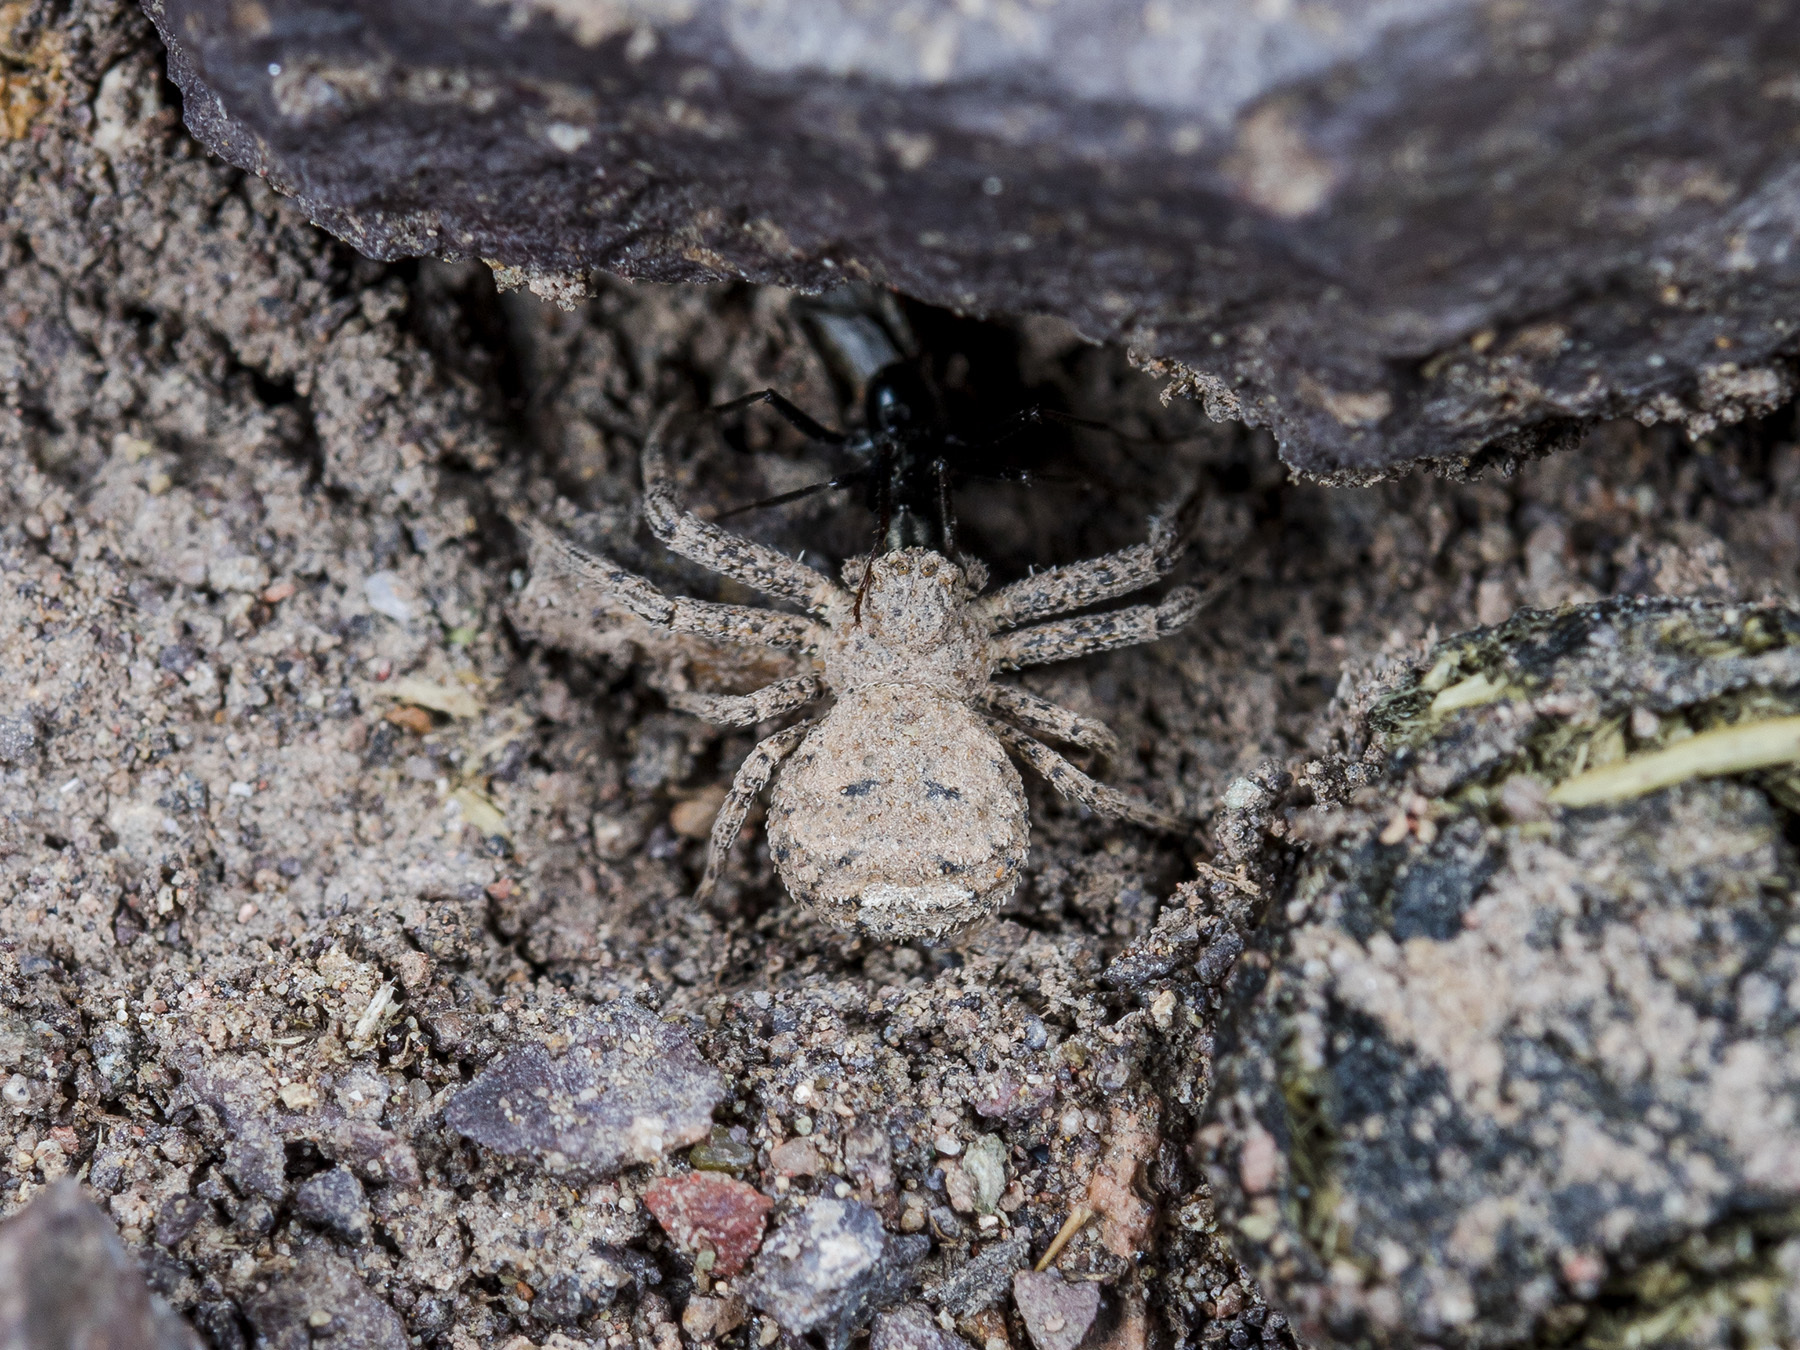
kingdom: Animalia
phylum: Arthropoda
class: Arachnida
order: Araneae
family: Thomisidae
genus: Ozyptila
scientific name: Ozyptila lugubris
